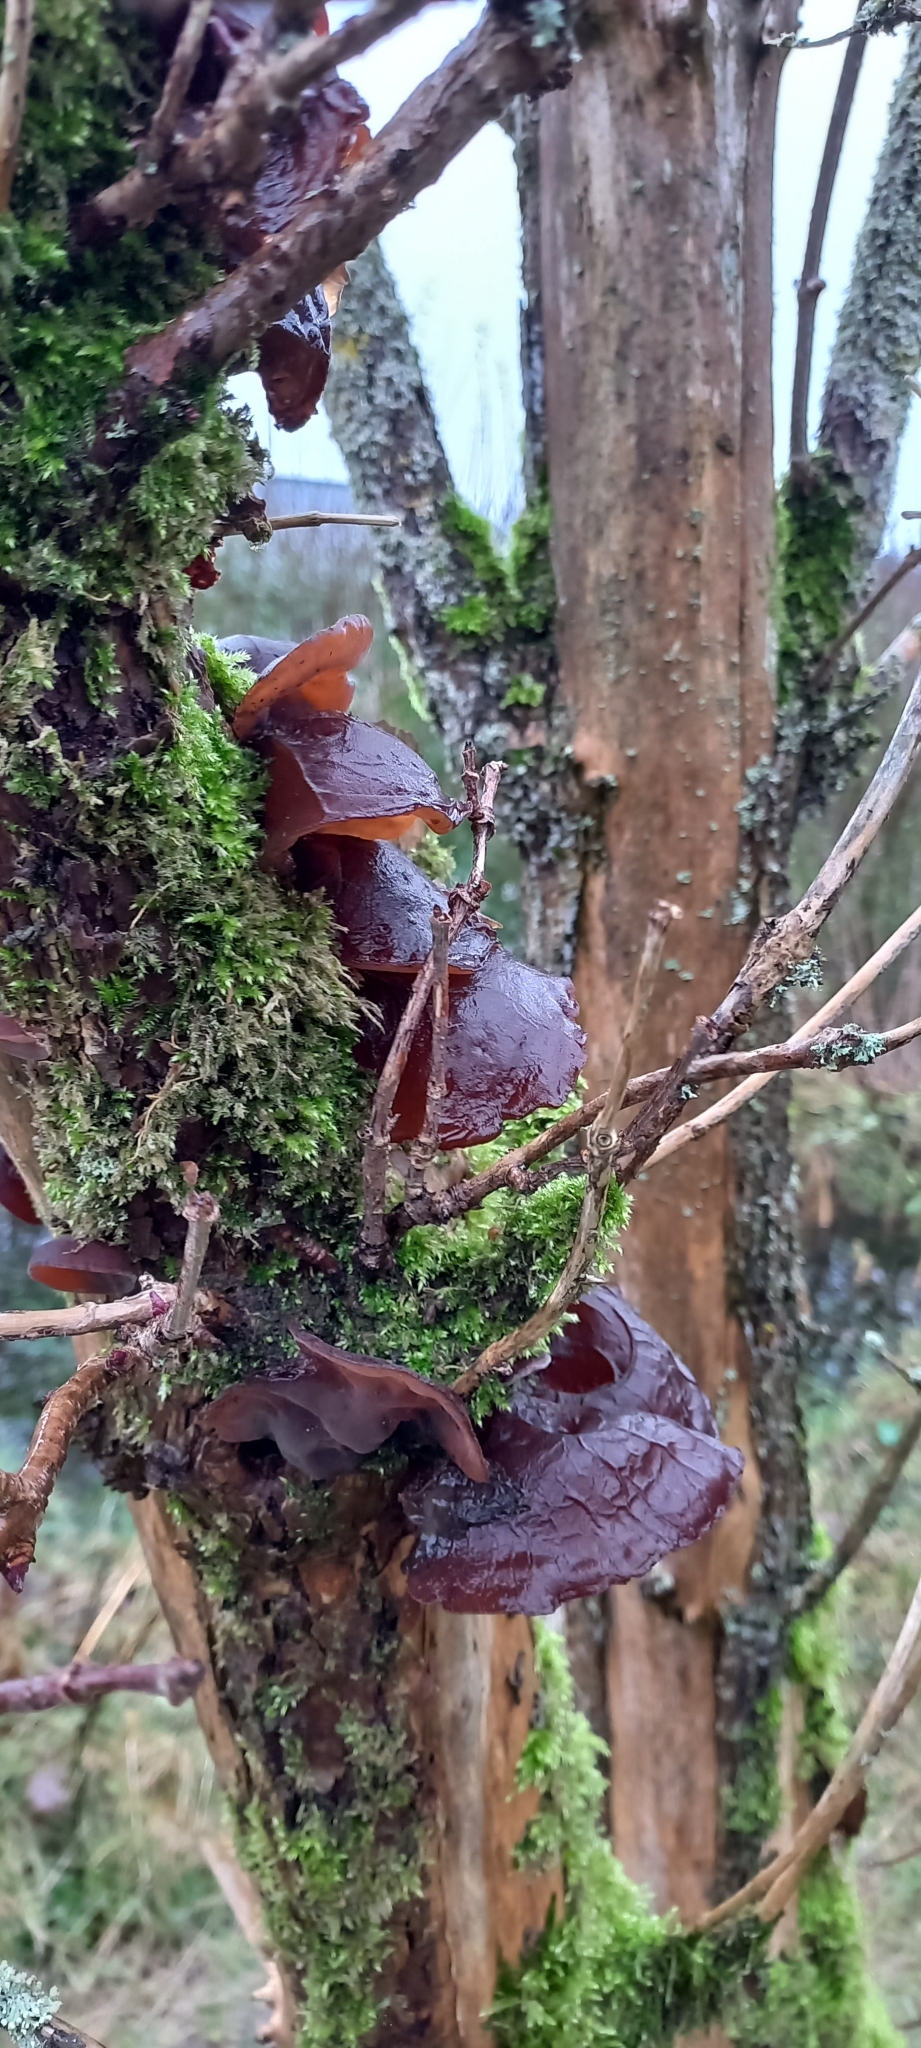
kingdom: Fungi
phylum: Basidiomycota
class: Agaricomycetes
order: Auriculariales
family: Auriculariaceae
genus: Auricularia
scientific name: Auricularia auricula-judae
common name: Jelly ear
